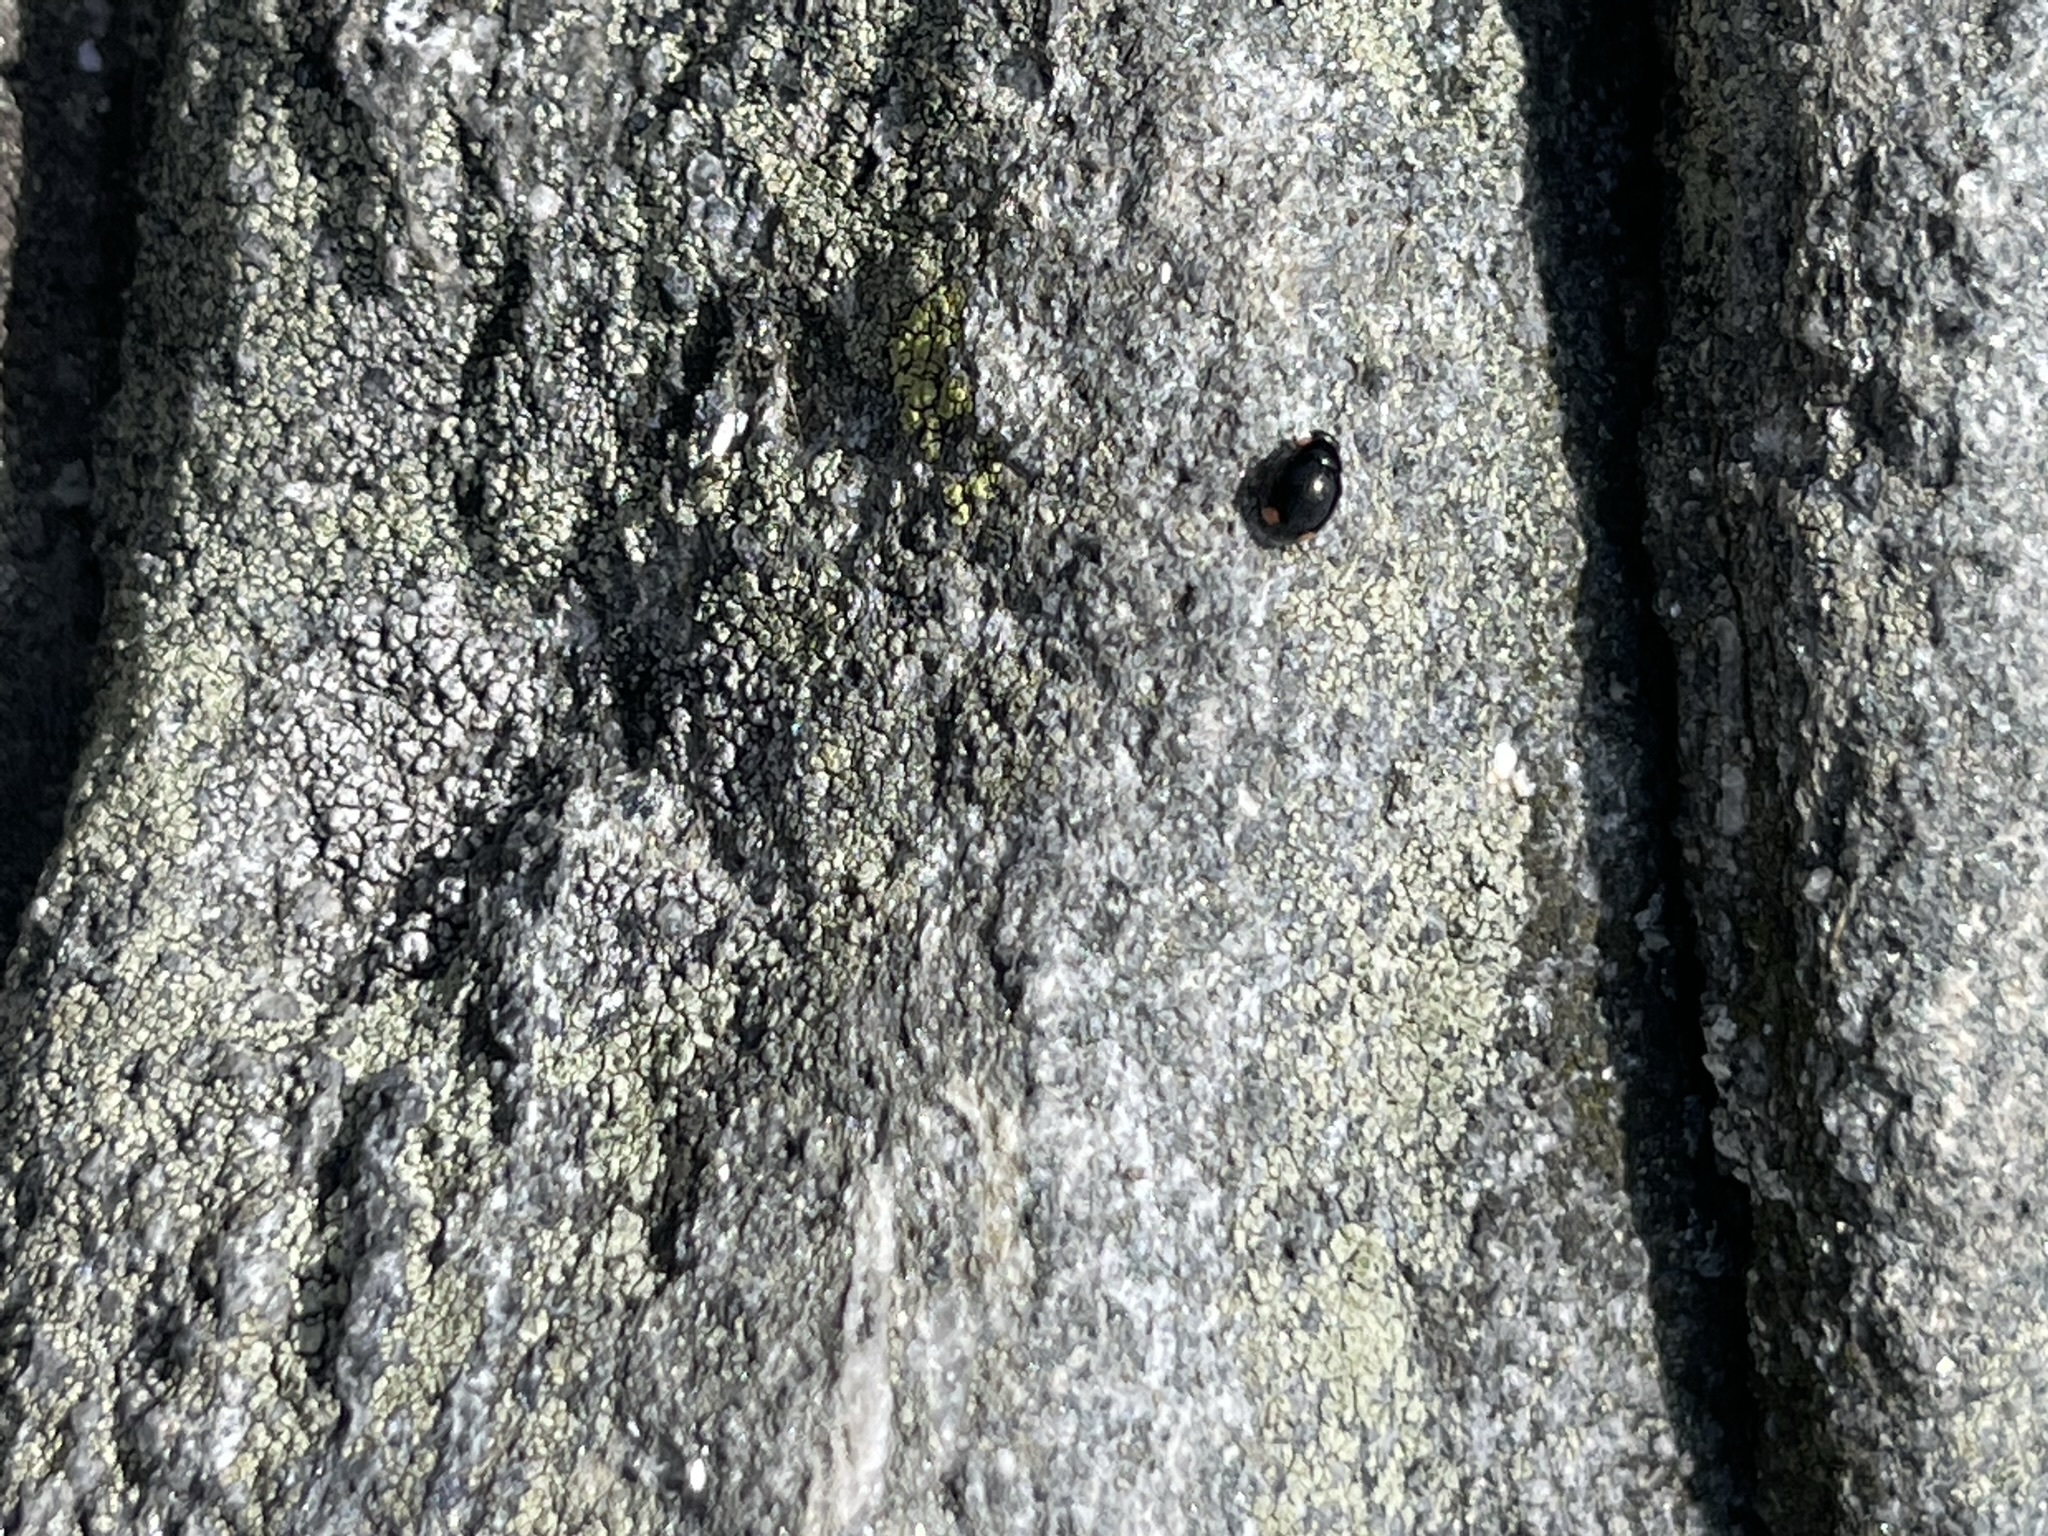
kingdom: Animalia
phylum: Arthropoda
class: Insecta
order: Coleoptera
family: Coccinellidae
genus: Hyperaspis
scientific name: Hyperaspis bigeminata
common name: Bigeminate sigil lady beetle
